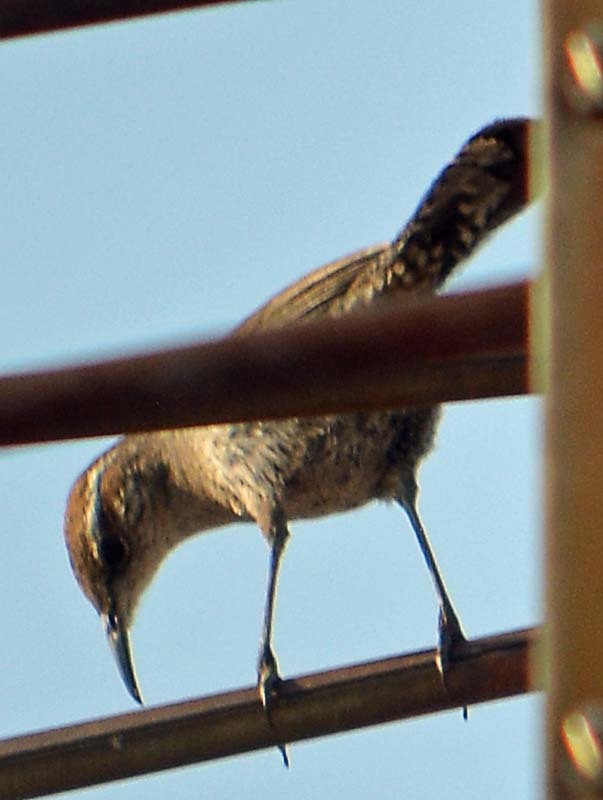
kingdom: Animalia
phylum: Chordata
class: Aves
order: Passeriformes
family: Troglodytidae
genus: Thryomanes
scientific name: Thryomanes bewickii
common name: Bewick's wren
